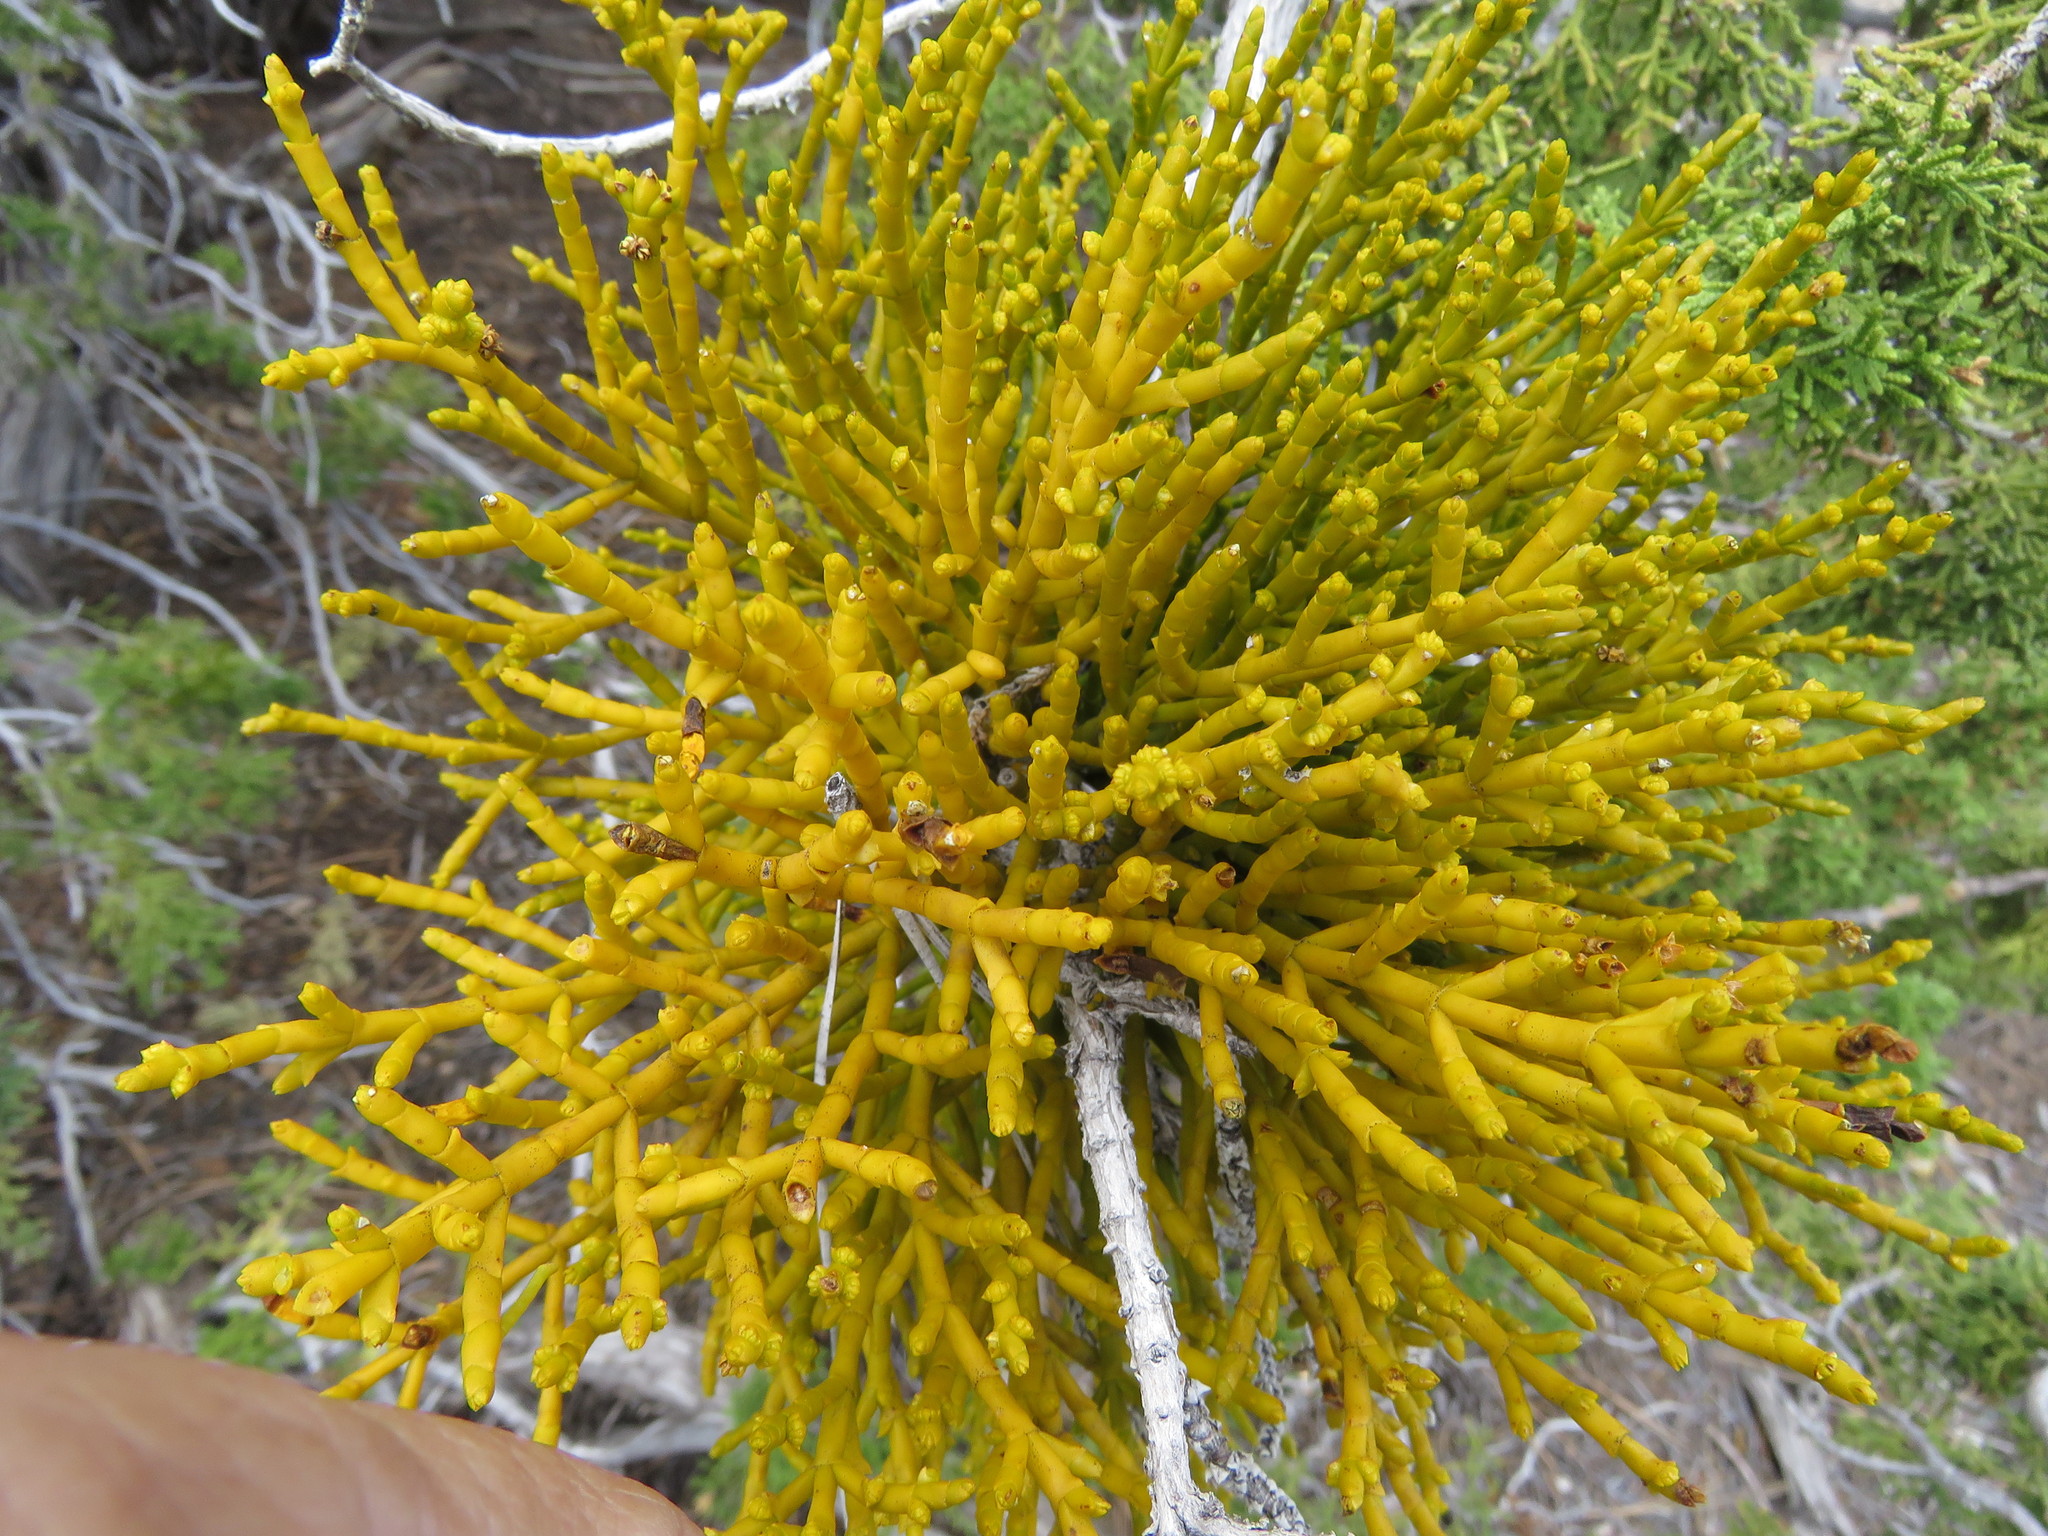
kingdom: Plantae
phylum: Tracheophyta
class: Magnoliopsida
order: Santalales
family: Viscaceae
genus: Phoradendron
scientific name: Phoradendron juniperinum
